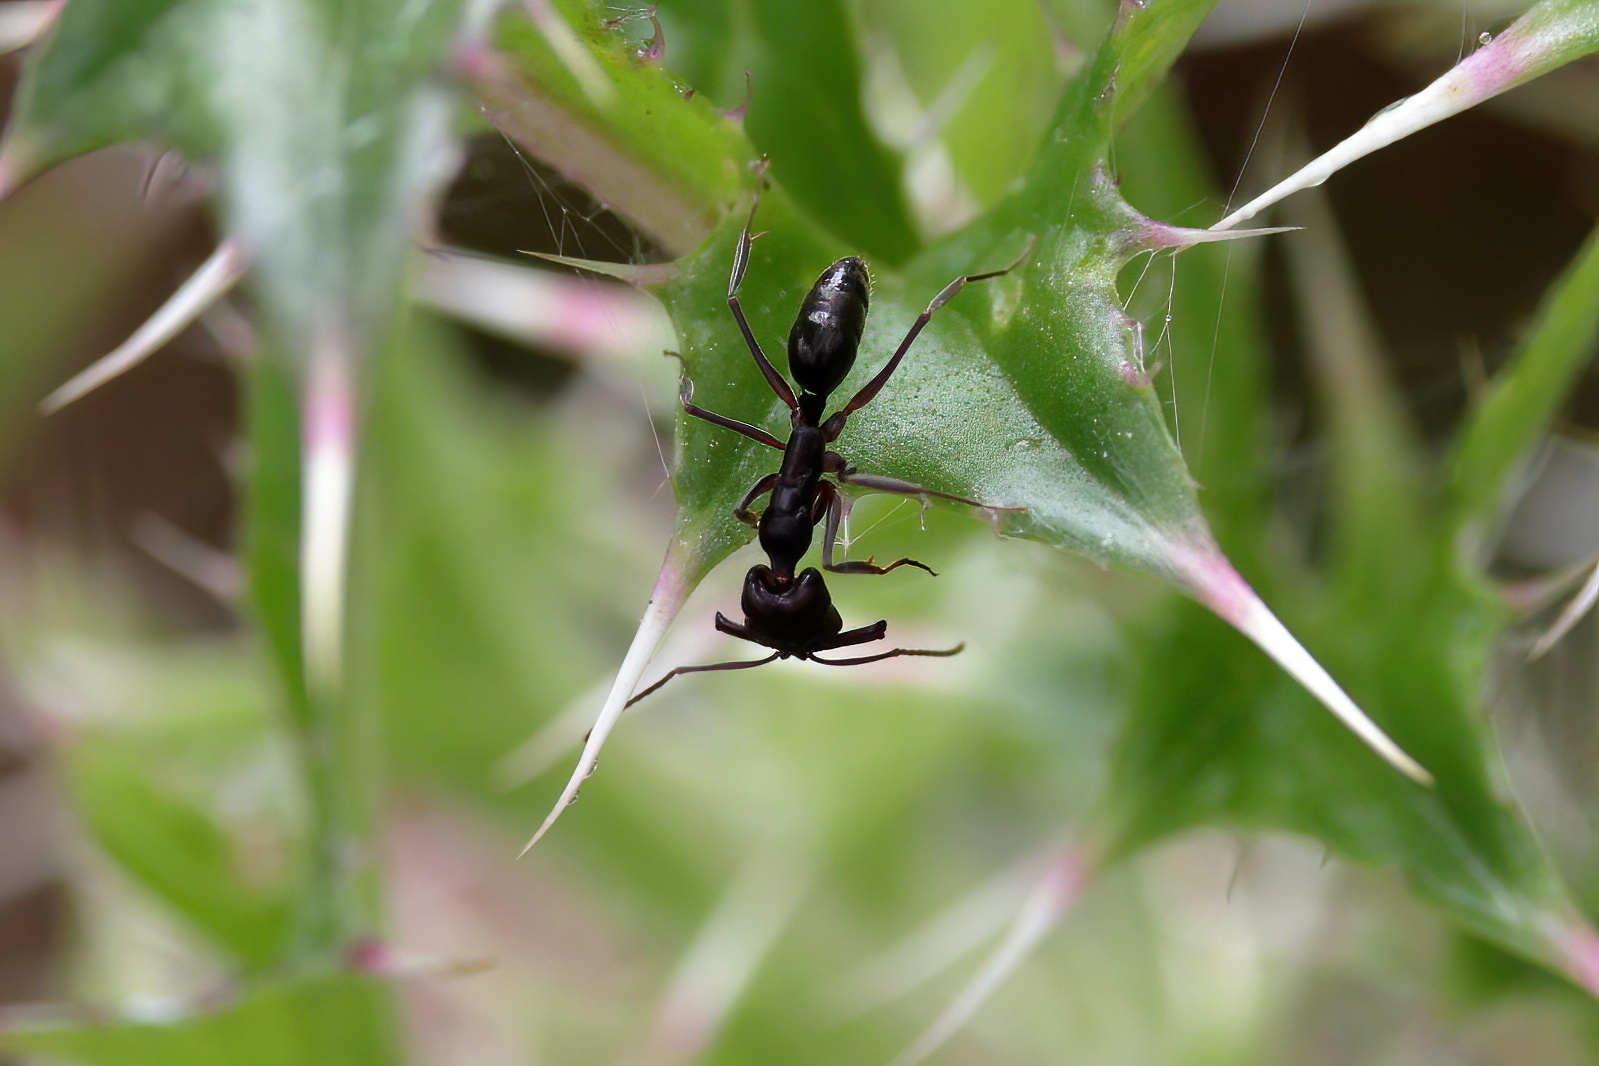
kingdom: Animalia
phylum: Arthropoda
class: Insecta
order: Hymenoptera
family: Formicidae
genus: Odontomachus
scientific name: Odontomachus haematodus
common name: Two-spined trapjaw ant
